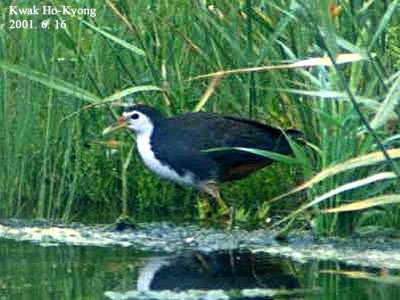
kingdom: Animalia
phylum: Chordata
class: Aves
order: Gruiformes
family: Rallidae
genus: Amaurornis
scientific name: Amaurornis phoenicurus
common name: White-breasted waterhen
